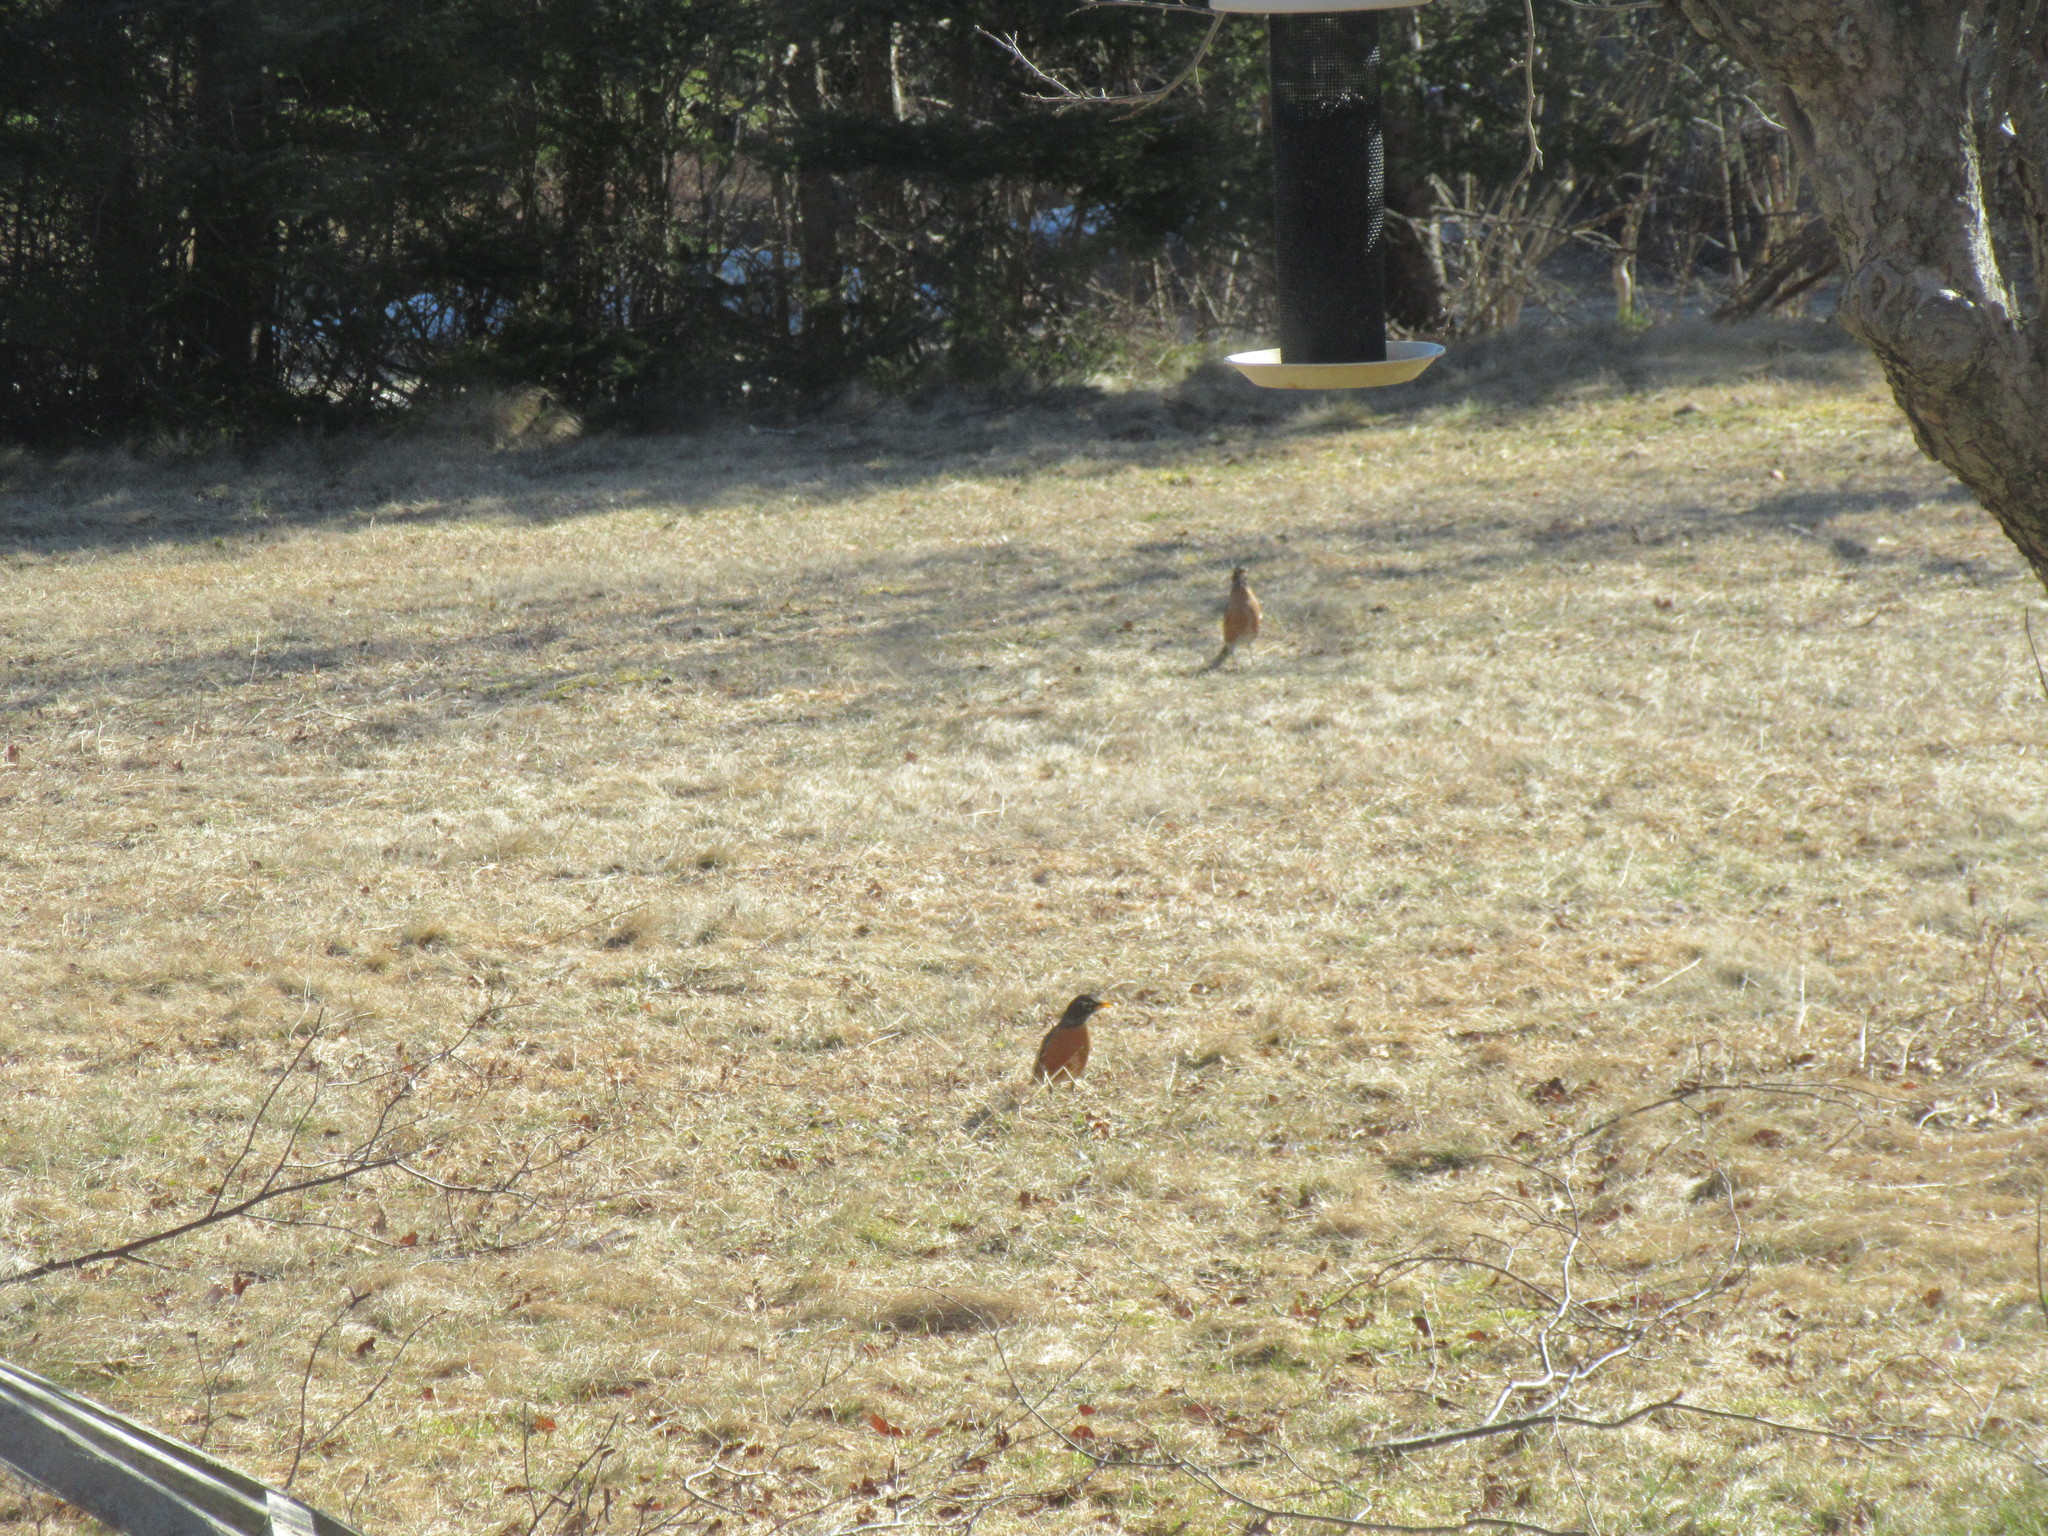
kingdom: Animalia
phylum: Chordata
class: Aves
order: Passeriformes
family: Turdidae
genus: Turdus
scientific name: Turdus migratorius
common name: American robin
